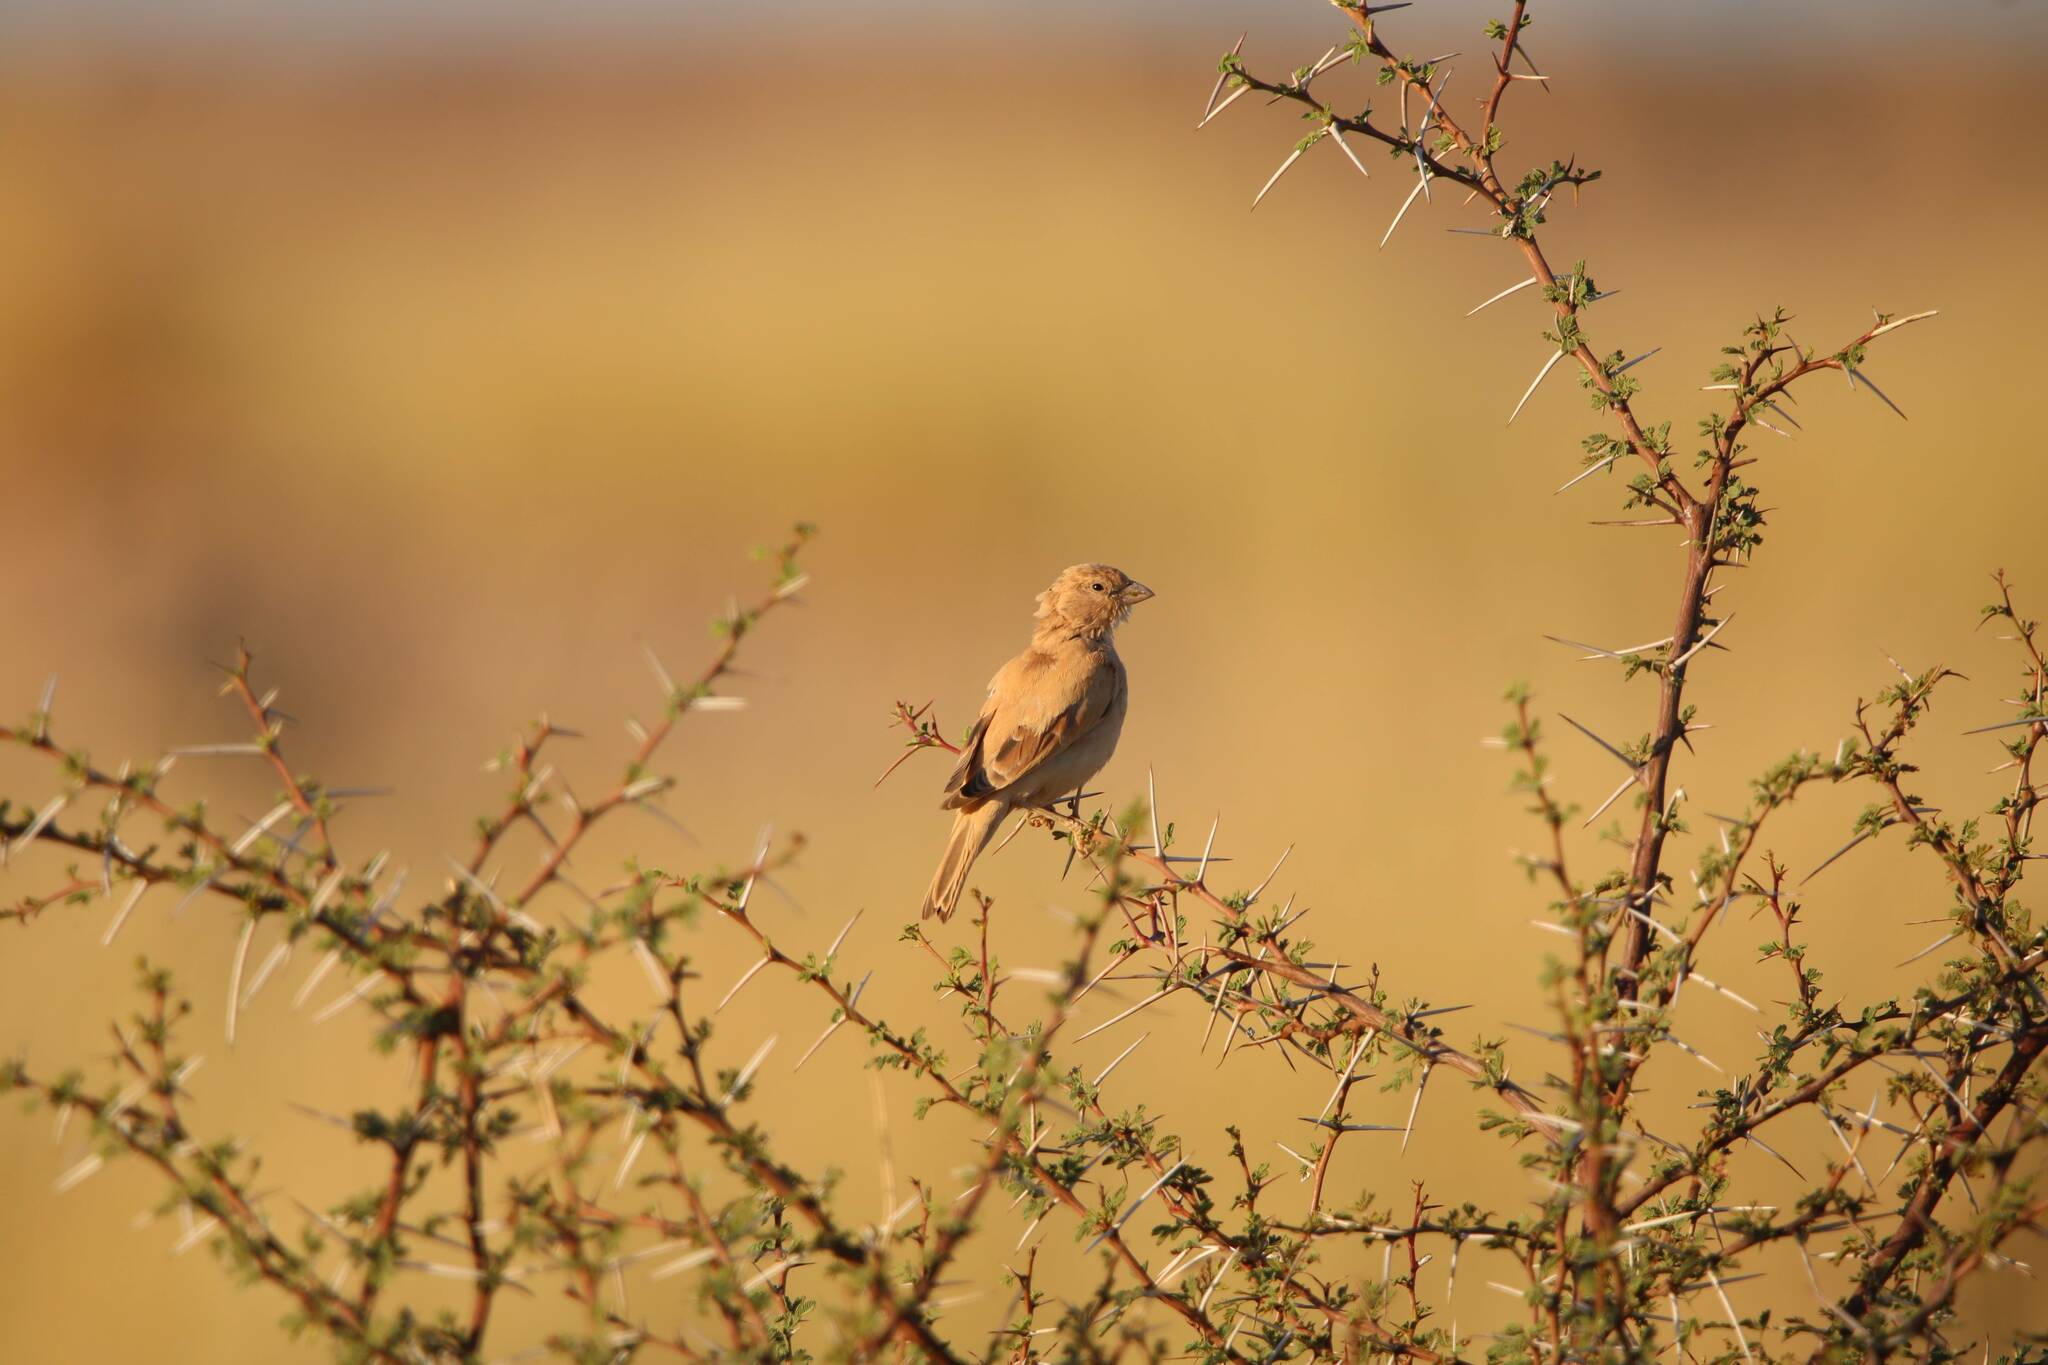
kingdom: Animalia
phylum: Chordata
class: Aves
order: Passeriformes
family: Passeridae
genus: Passer
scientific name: Passer simplex
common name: Desert sparrow
